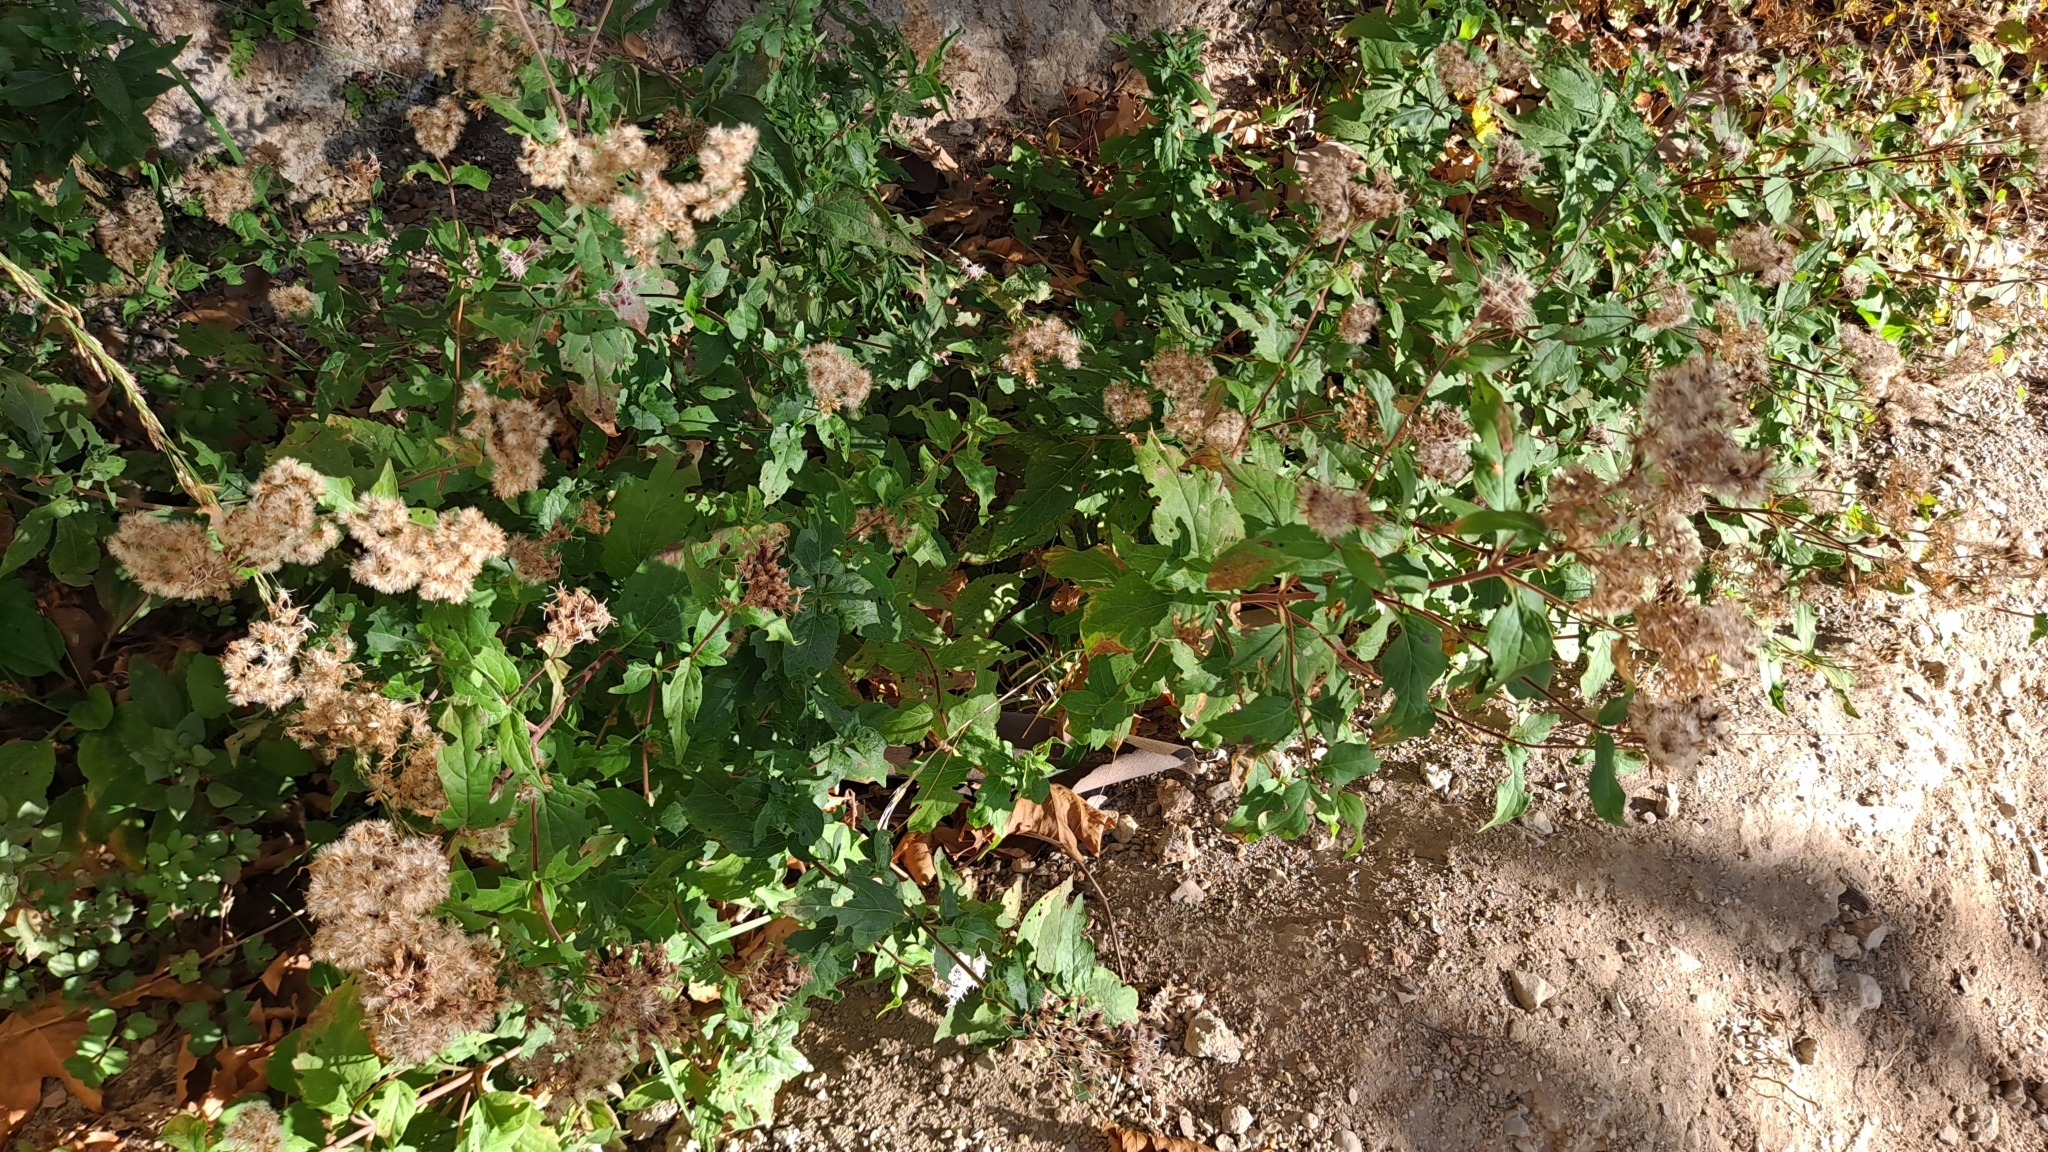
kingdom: Plantae
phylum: Tracheophyta
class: Magnoliopsida
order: Asterales
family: Asteraceae
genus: Eupatorium
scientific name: Eupatorium cannabinum
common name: Hemp-agrimony
